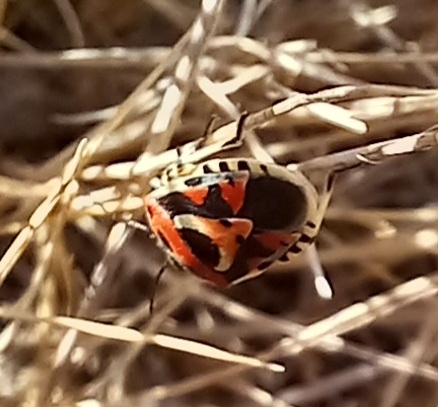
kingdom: Animalia
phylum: Arthropoda
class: Insecta
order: Hemiptera
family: Pentatomidae
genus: Eurydema
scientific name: Eurydema ornata
